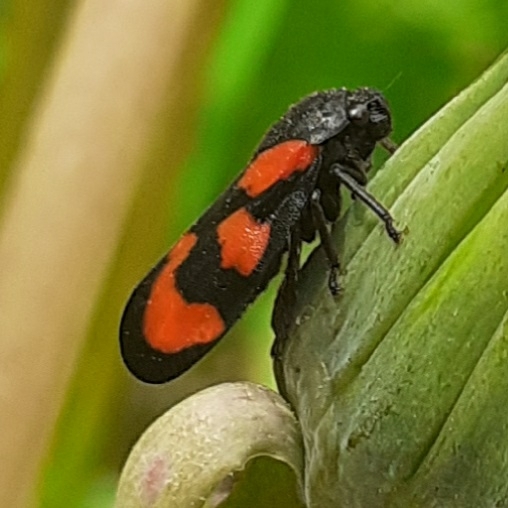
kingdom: Animalia
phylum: Arthropoda
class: Insecta
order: Hemiptera
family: Cercopidae
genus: Cercopis
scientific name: Cercopis vulnerata
